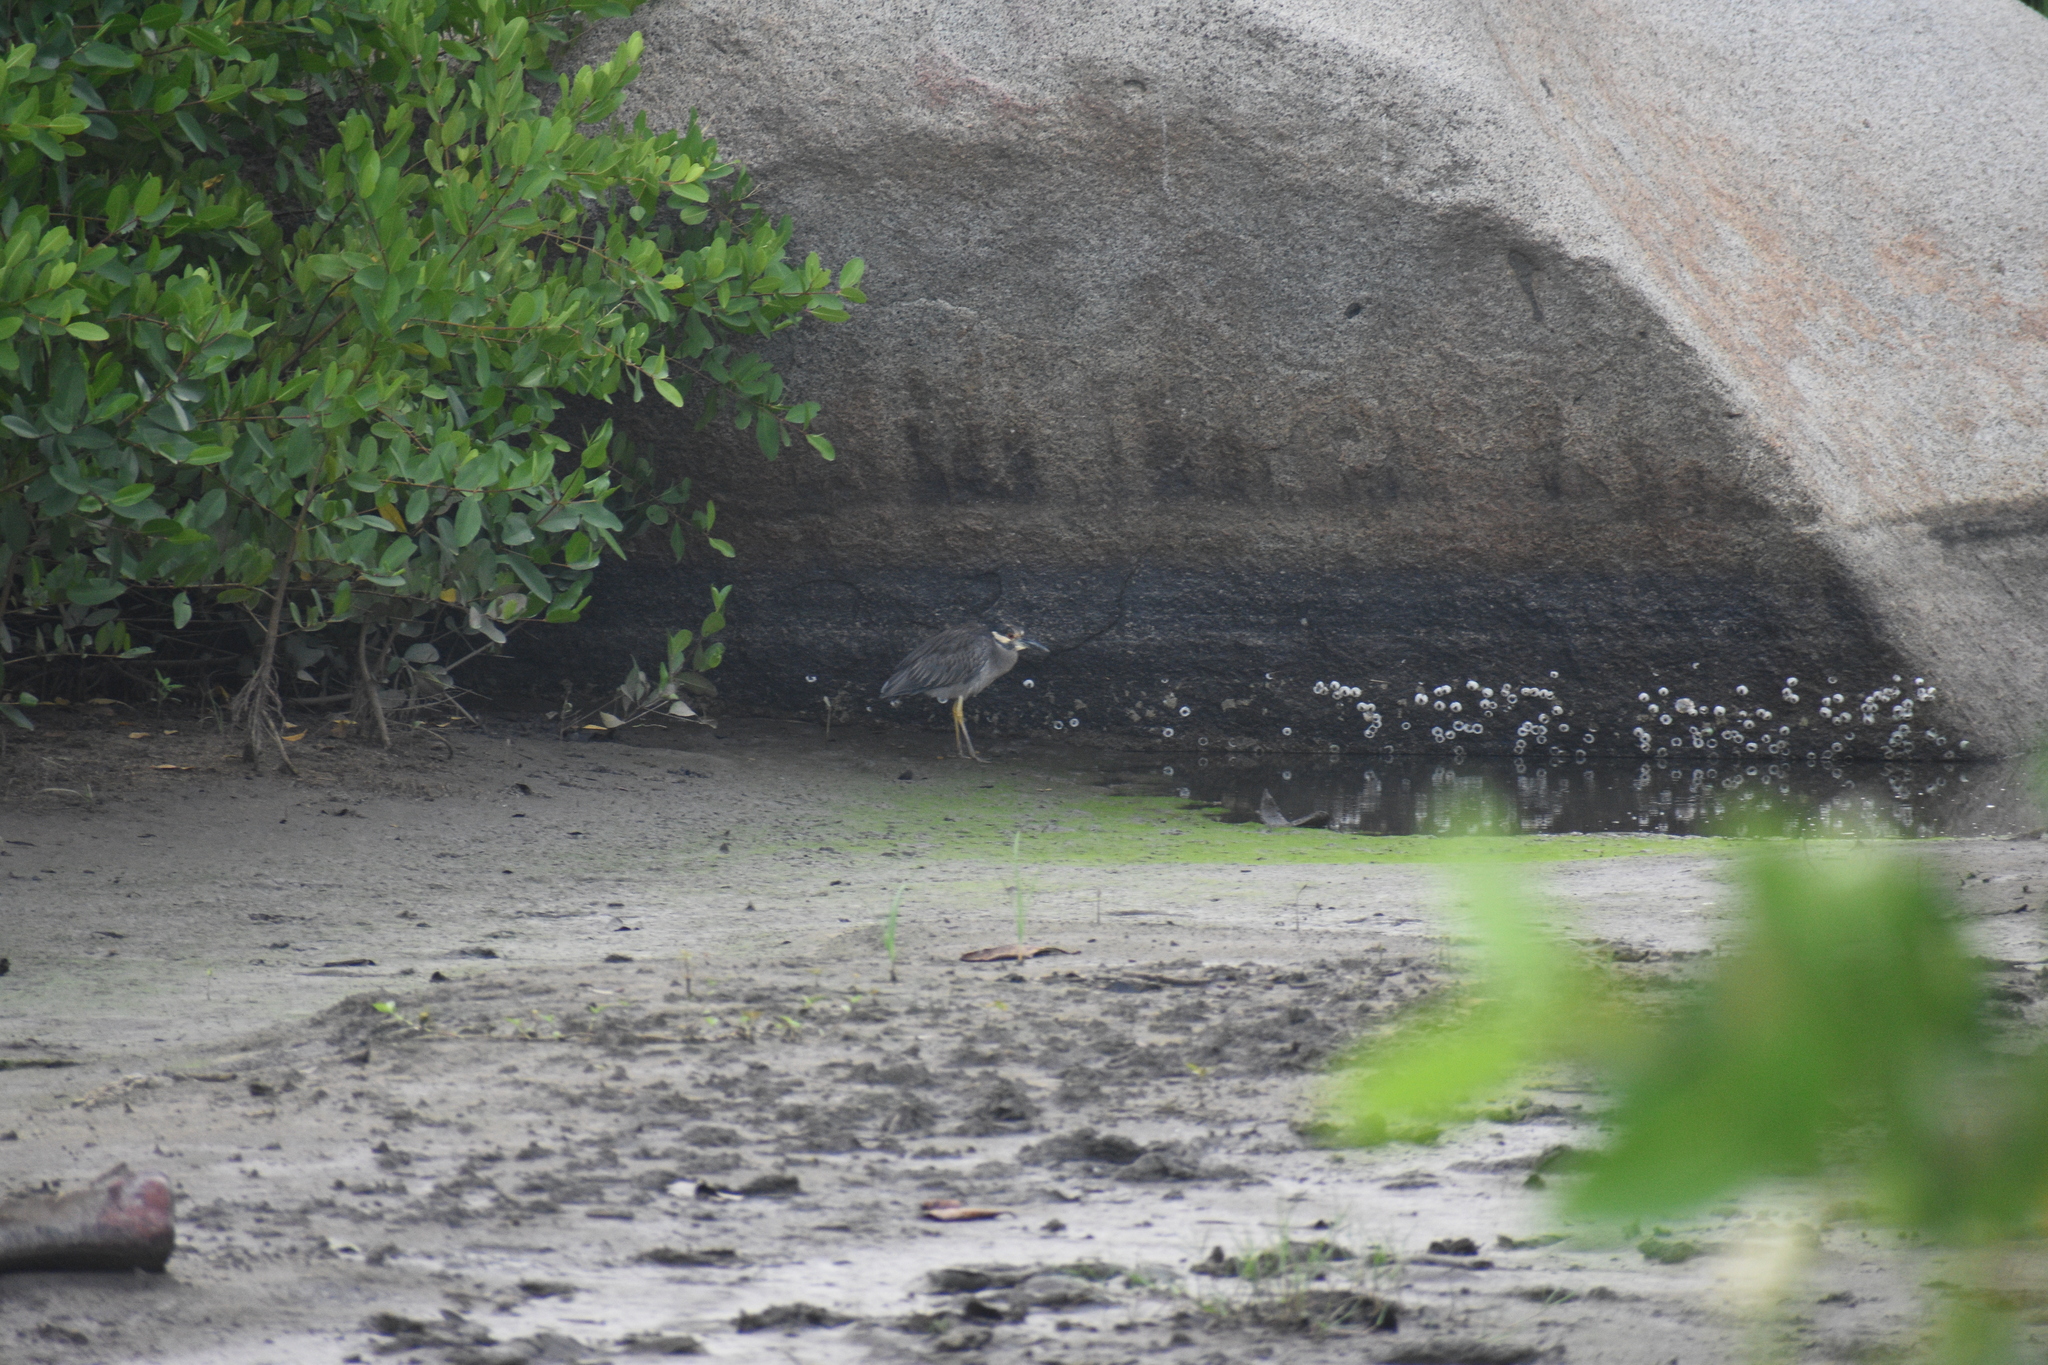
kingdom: Animalia
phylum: Chordata
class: Aves
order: Pelecaniformes
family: Ardeidae
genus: Nyctanassa
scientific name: Nyctanassa violacea
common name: Yellow-crowned night heron
